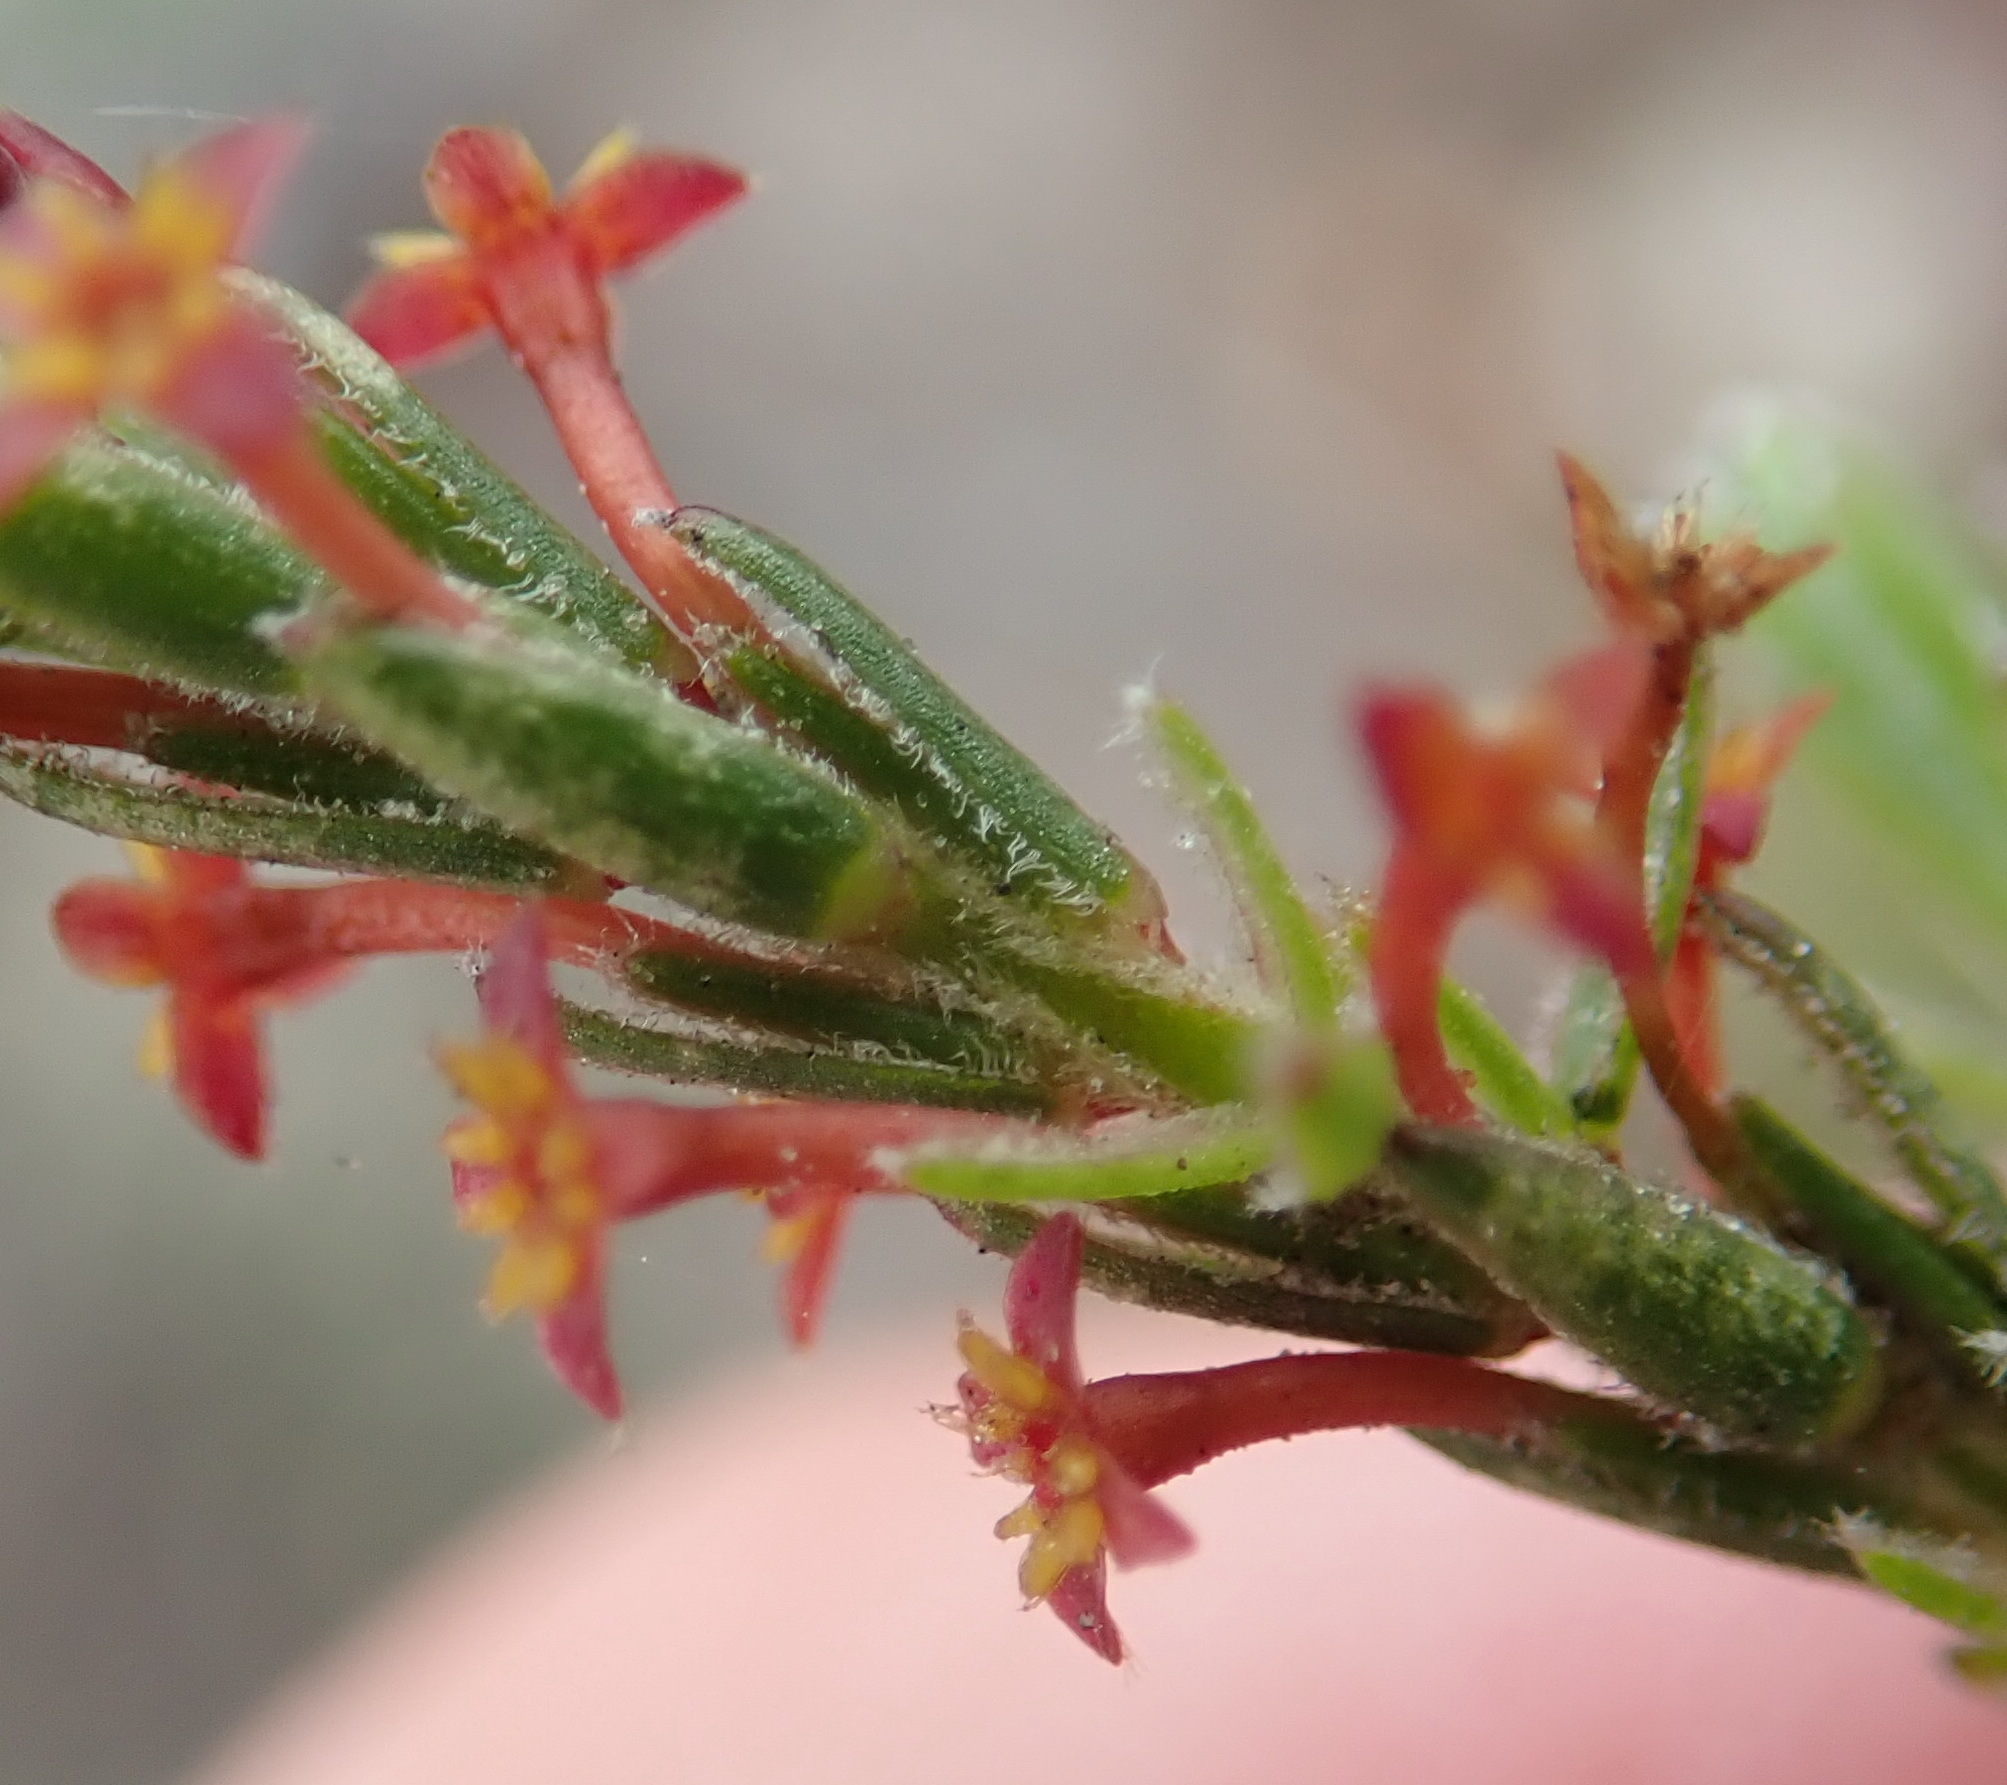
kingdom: Plantae
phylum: Tracheophyta
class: Magnoliopsida
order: Malvales
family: Thymelaeaceae
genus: Struthiola
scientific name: Struthiola parviflora
